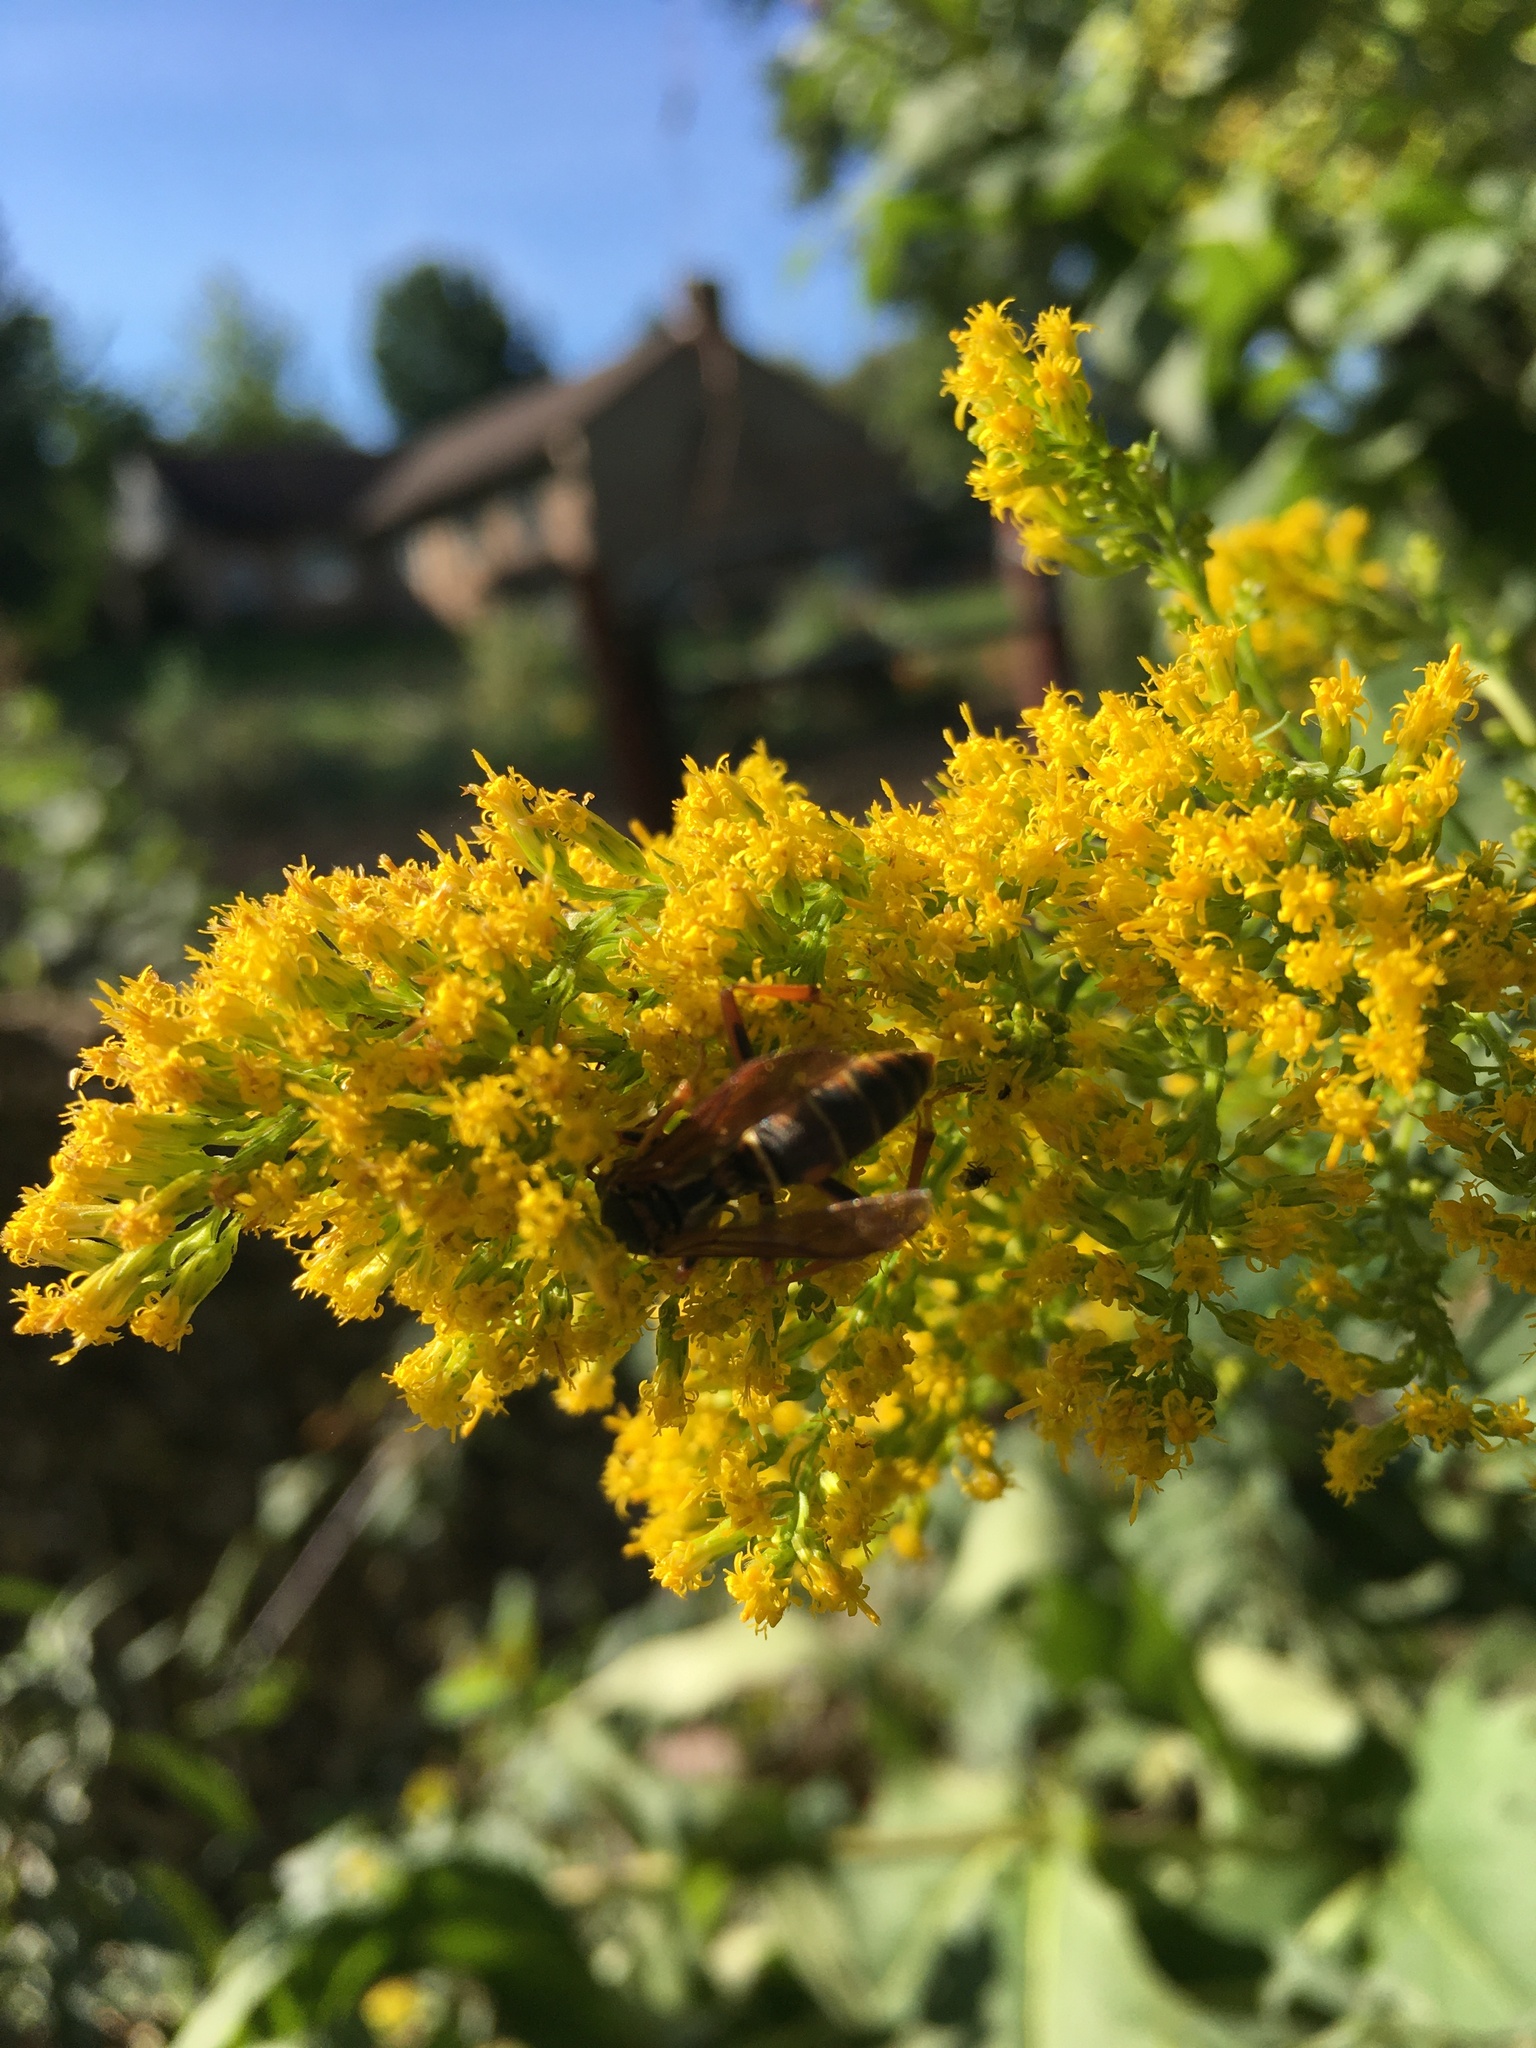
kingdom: Animalia
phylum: Arthropoda
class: Insecta
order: Hymenoptera
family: Eumenidae
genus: Polistes
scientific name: Polistes fuscatus
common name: Dark paper wasp
